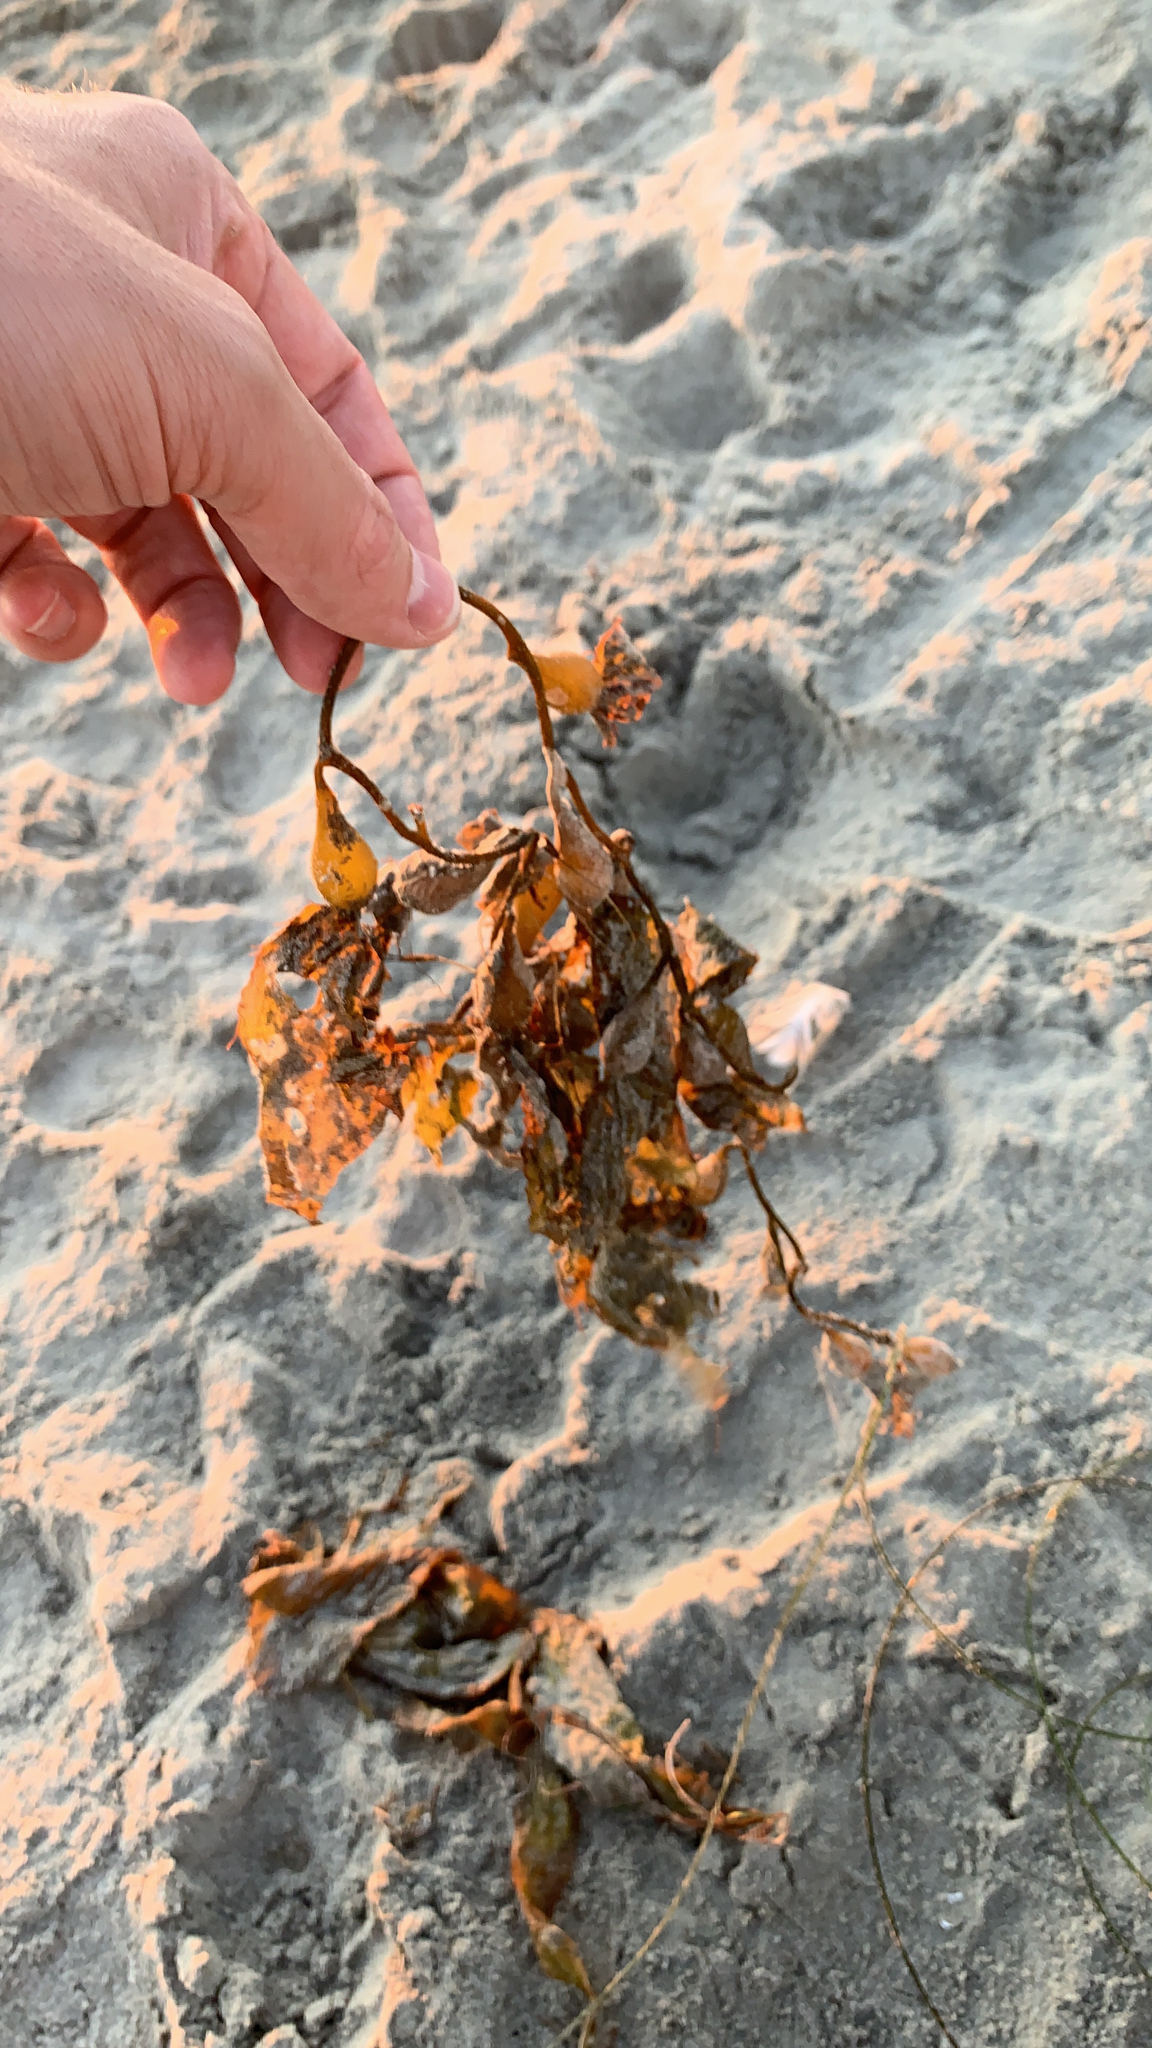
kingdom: Chromista
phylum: Ochrophyta
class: Phaeophyceae
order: Laminariales
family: Laminariaceae
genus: Macrocystis
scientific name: Macrocystis pyrifera
